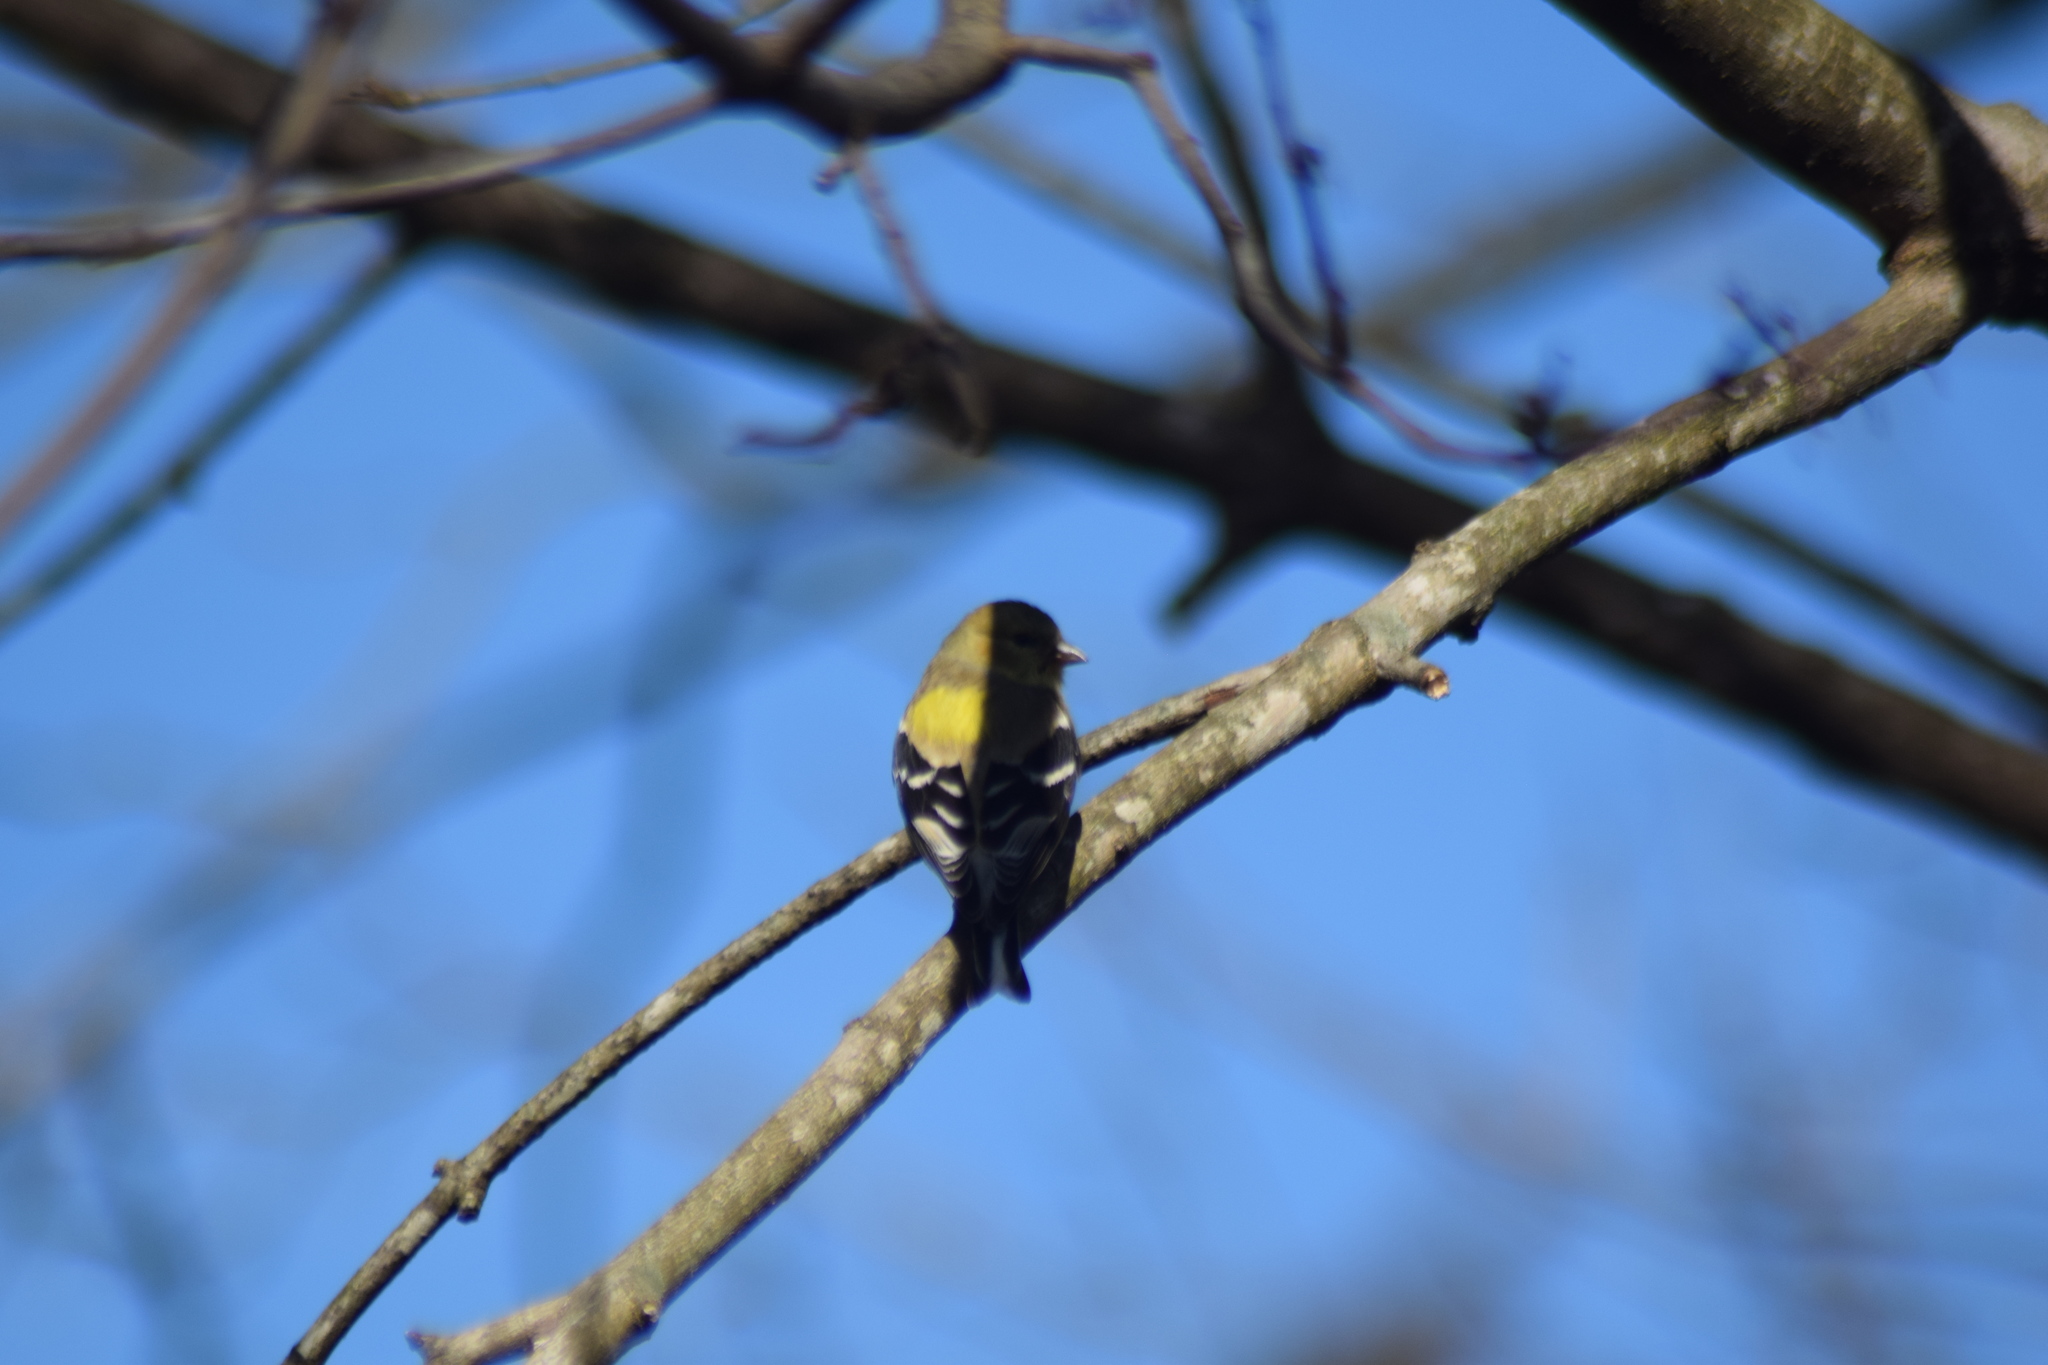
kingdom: Animalia
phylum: Chordata
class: Aves
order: Passeriformes
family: Fringillidae
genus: Spinus
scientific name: Spinus tristis
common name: American goldfinch
